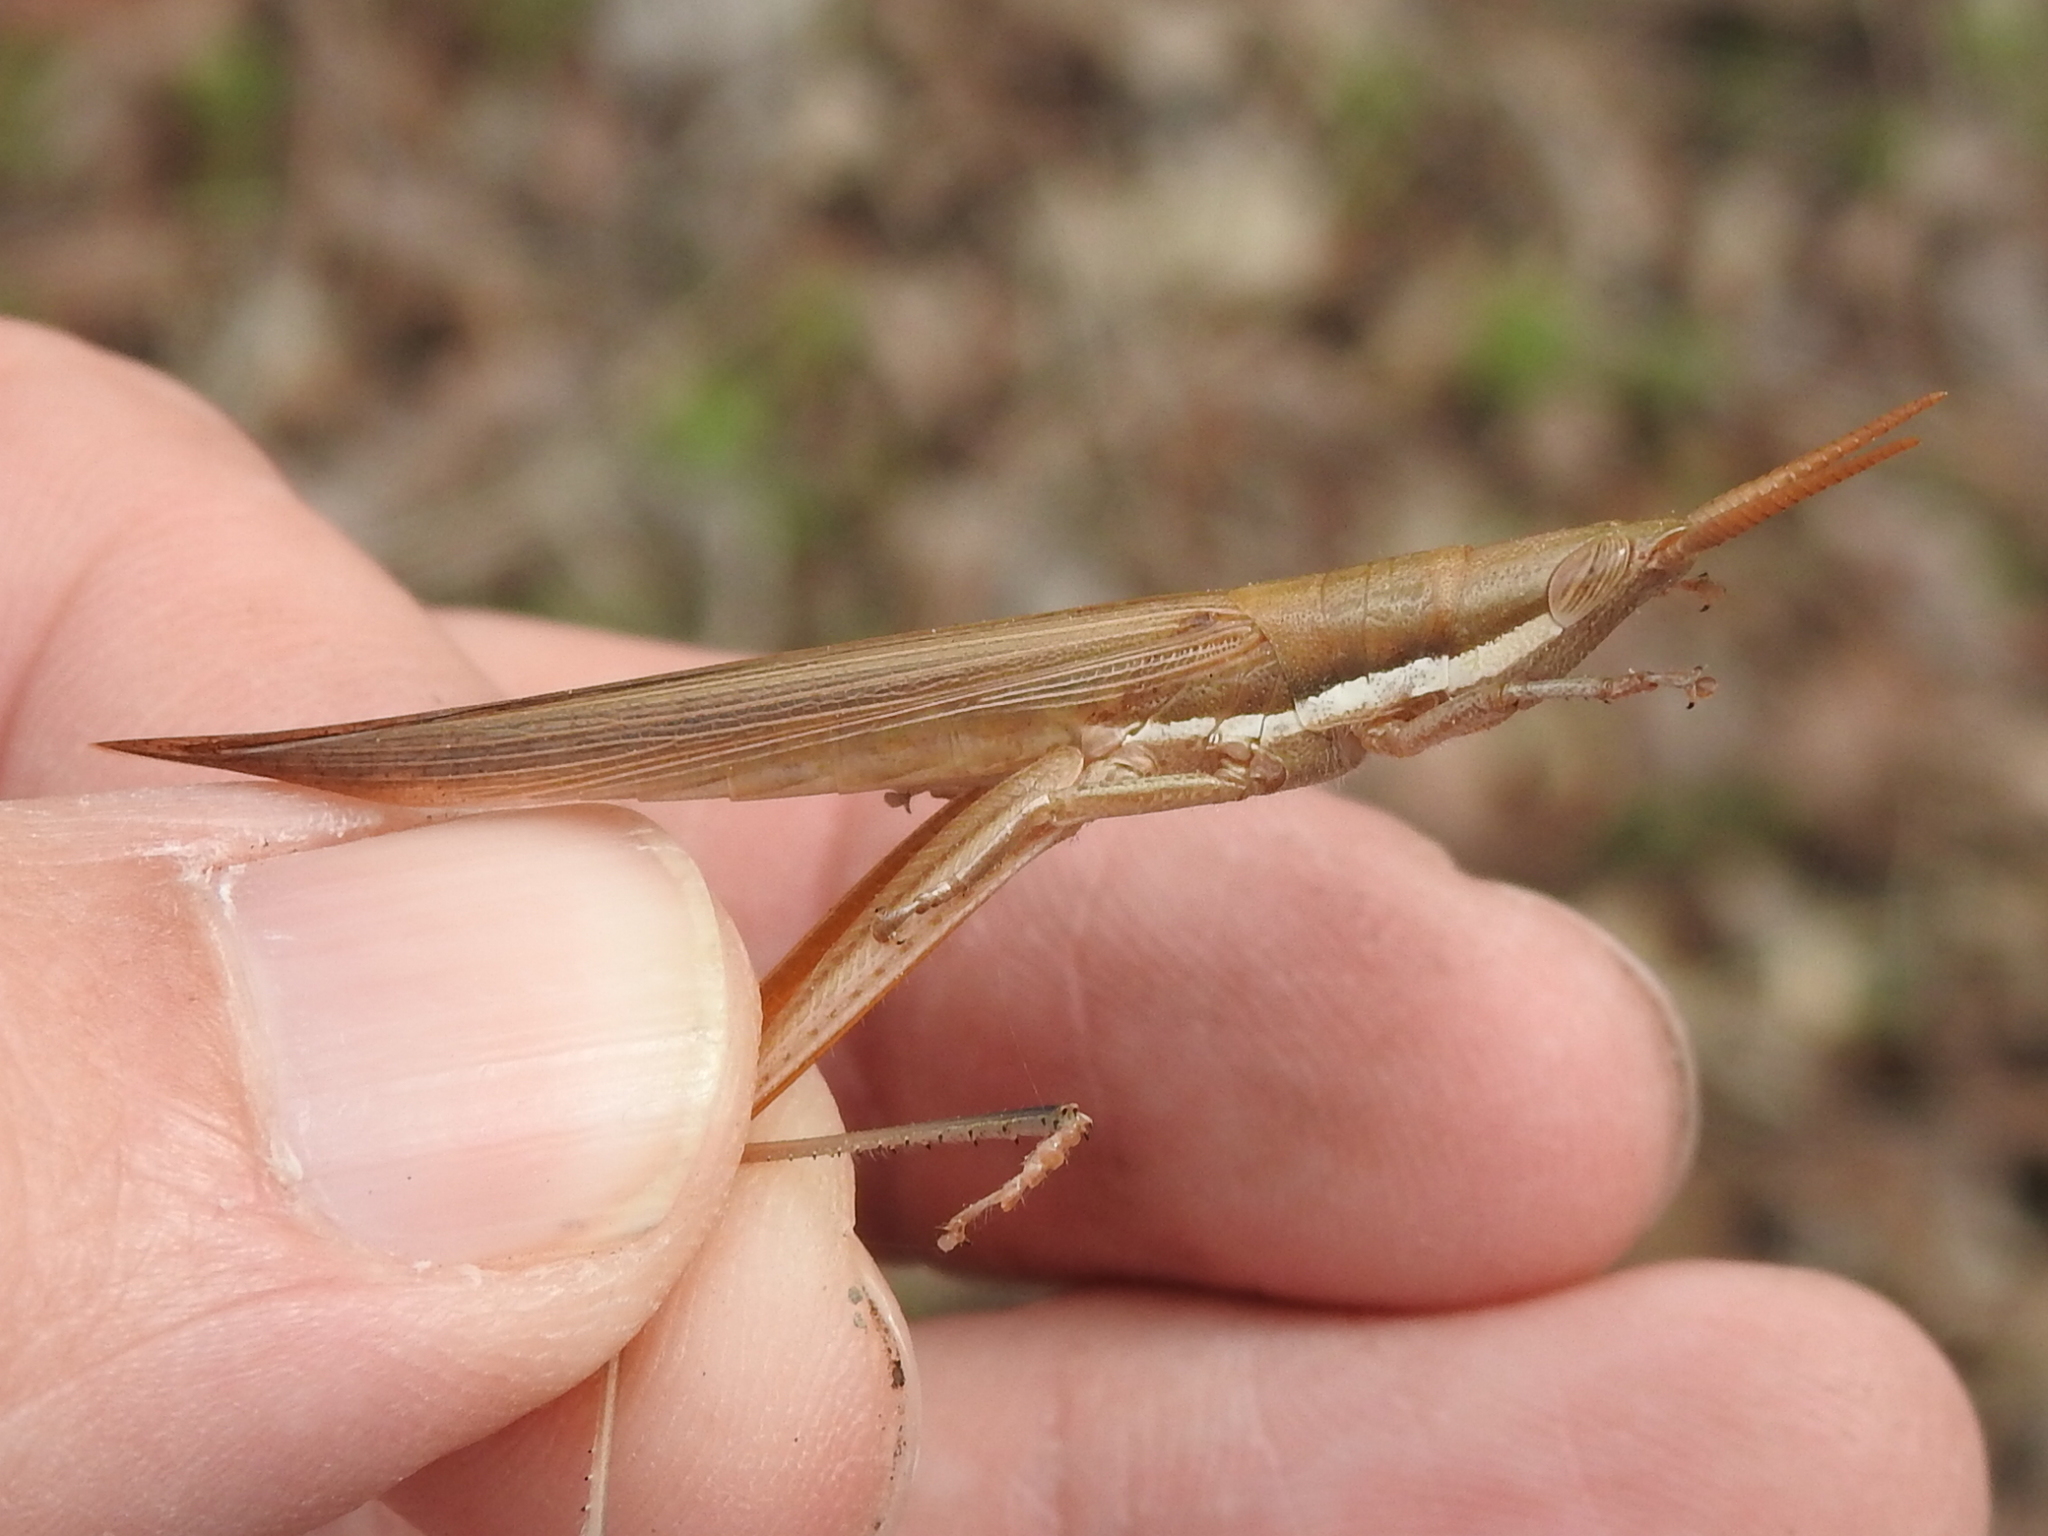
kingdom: Animalia
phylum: Arthropoda
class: Insecta
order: Orthoptera
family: Acrididae
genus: Leptysma
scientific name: Leptysma marginicollis
